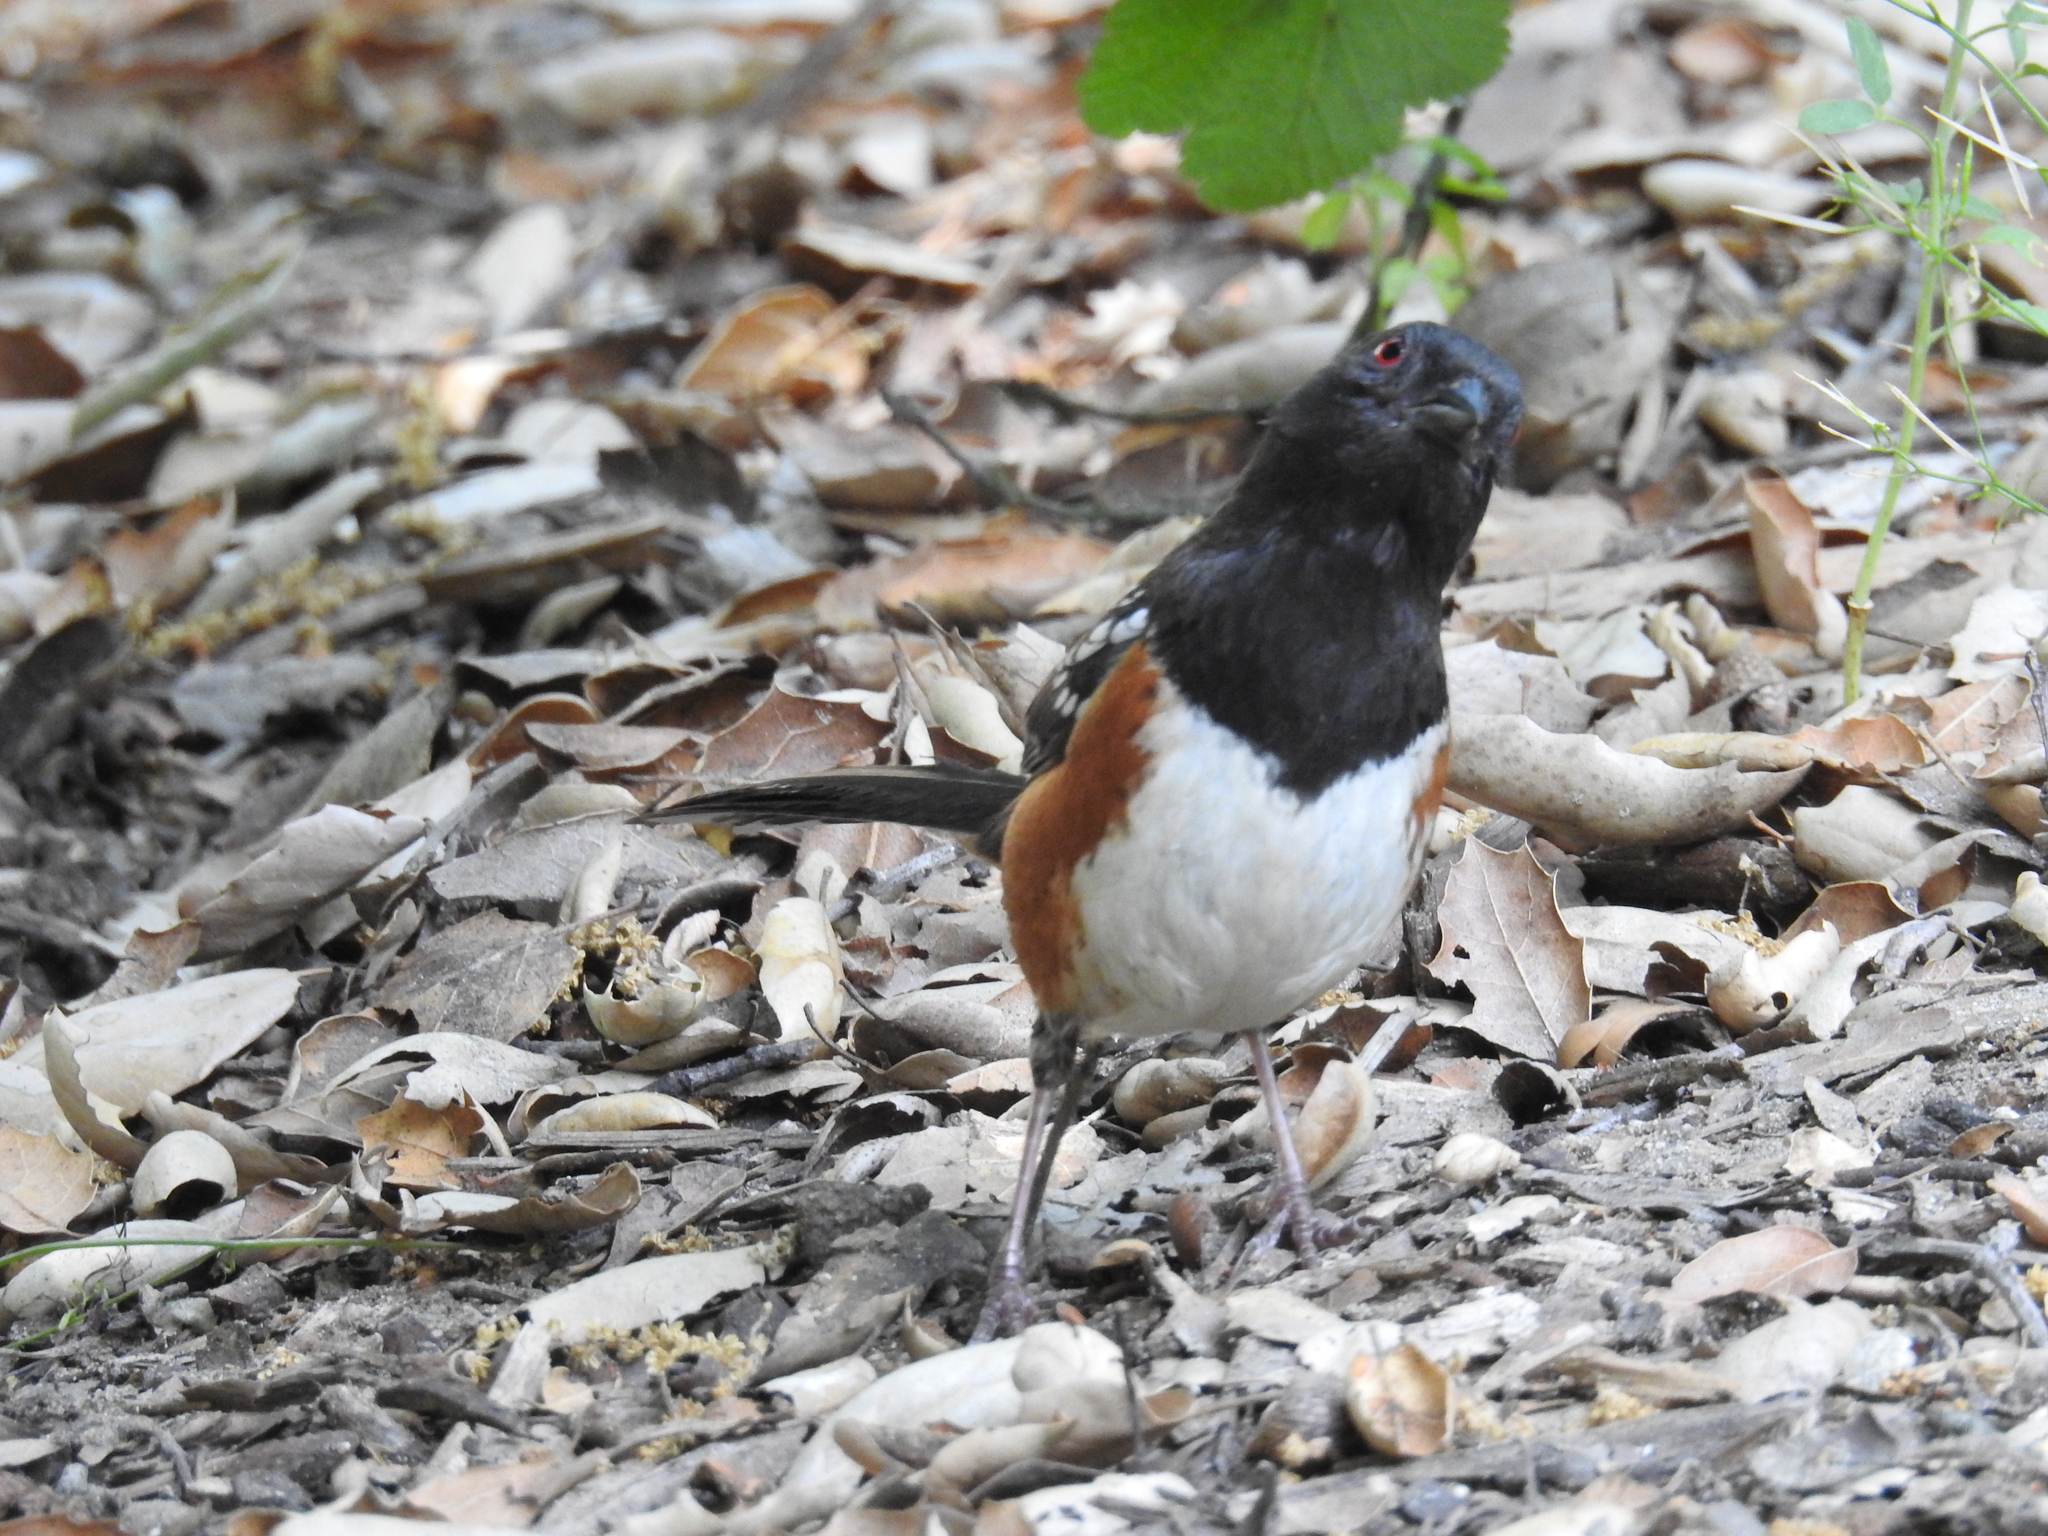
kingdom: Animalia
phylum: Chordata
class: Aves
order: Passeriformes
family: Passerellidae
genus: Pipilo
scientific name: Pipilo maculatus
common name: Spotted towhee
